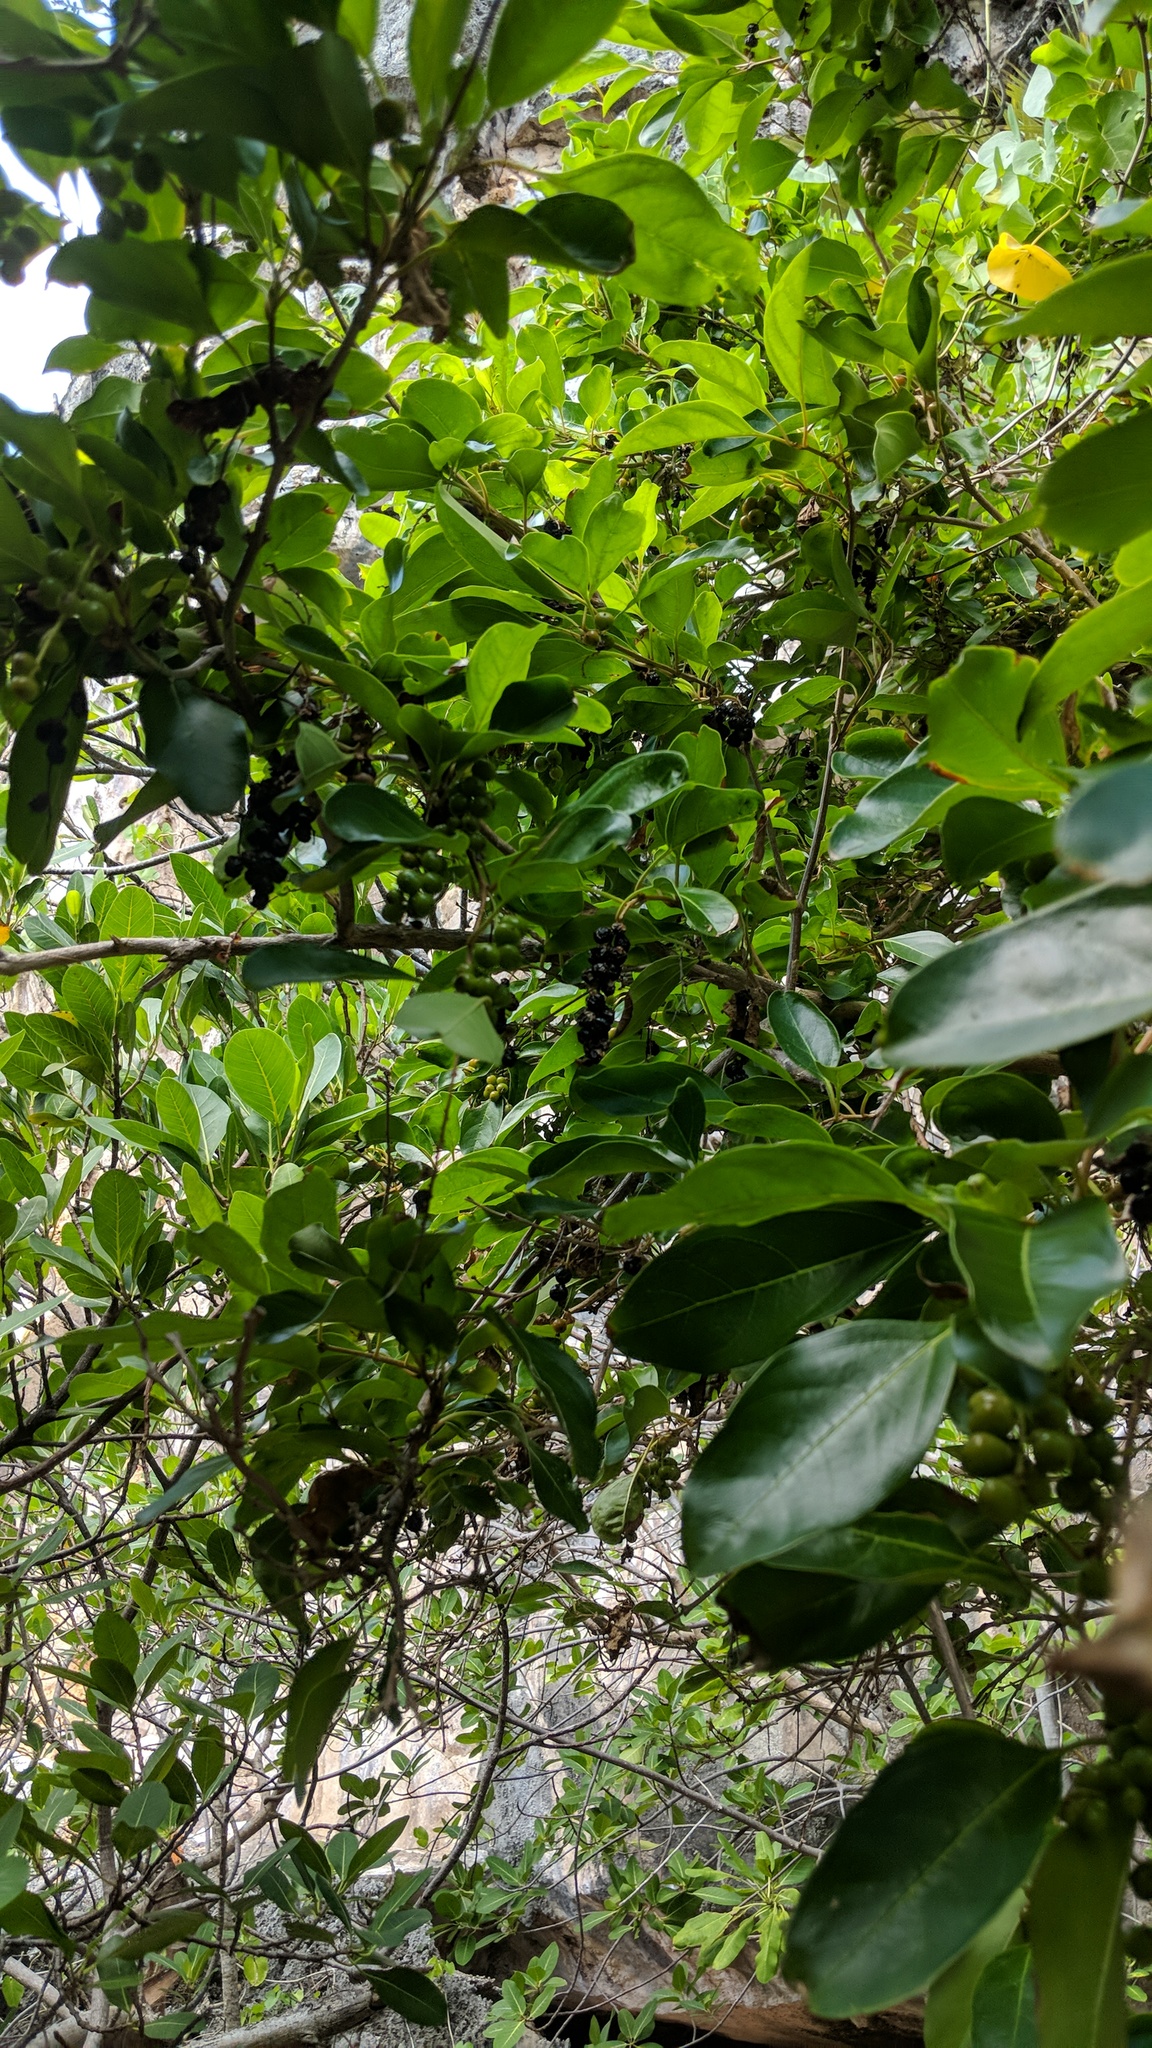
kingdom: Plantae
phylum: Tracheophyta
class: Magnoliopsida
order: Lamiales
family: Verbenaceae
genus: Citharexylum
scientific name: Citharexylum spinosum
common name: Fiddlewood
